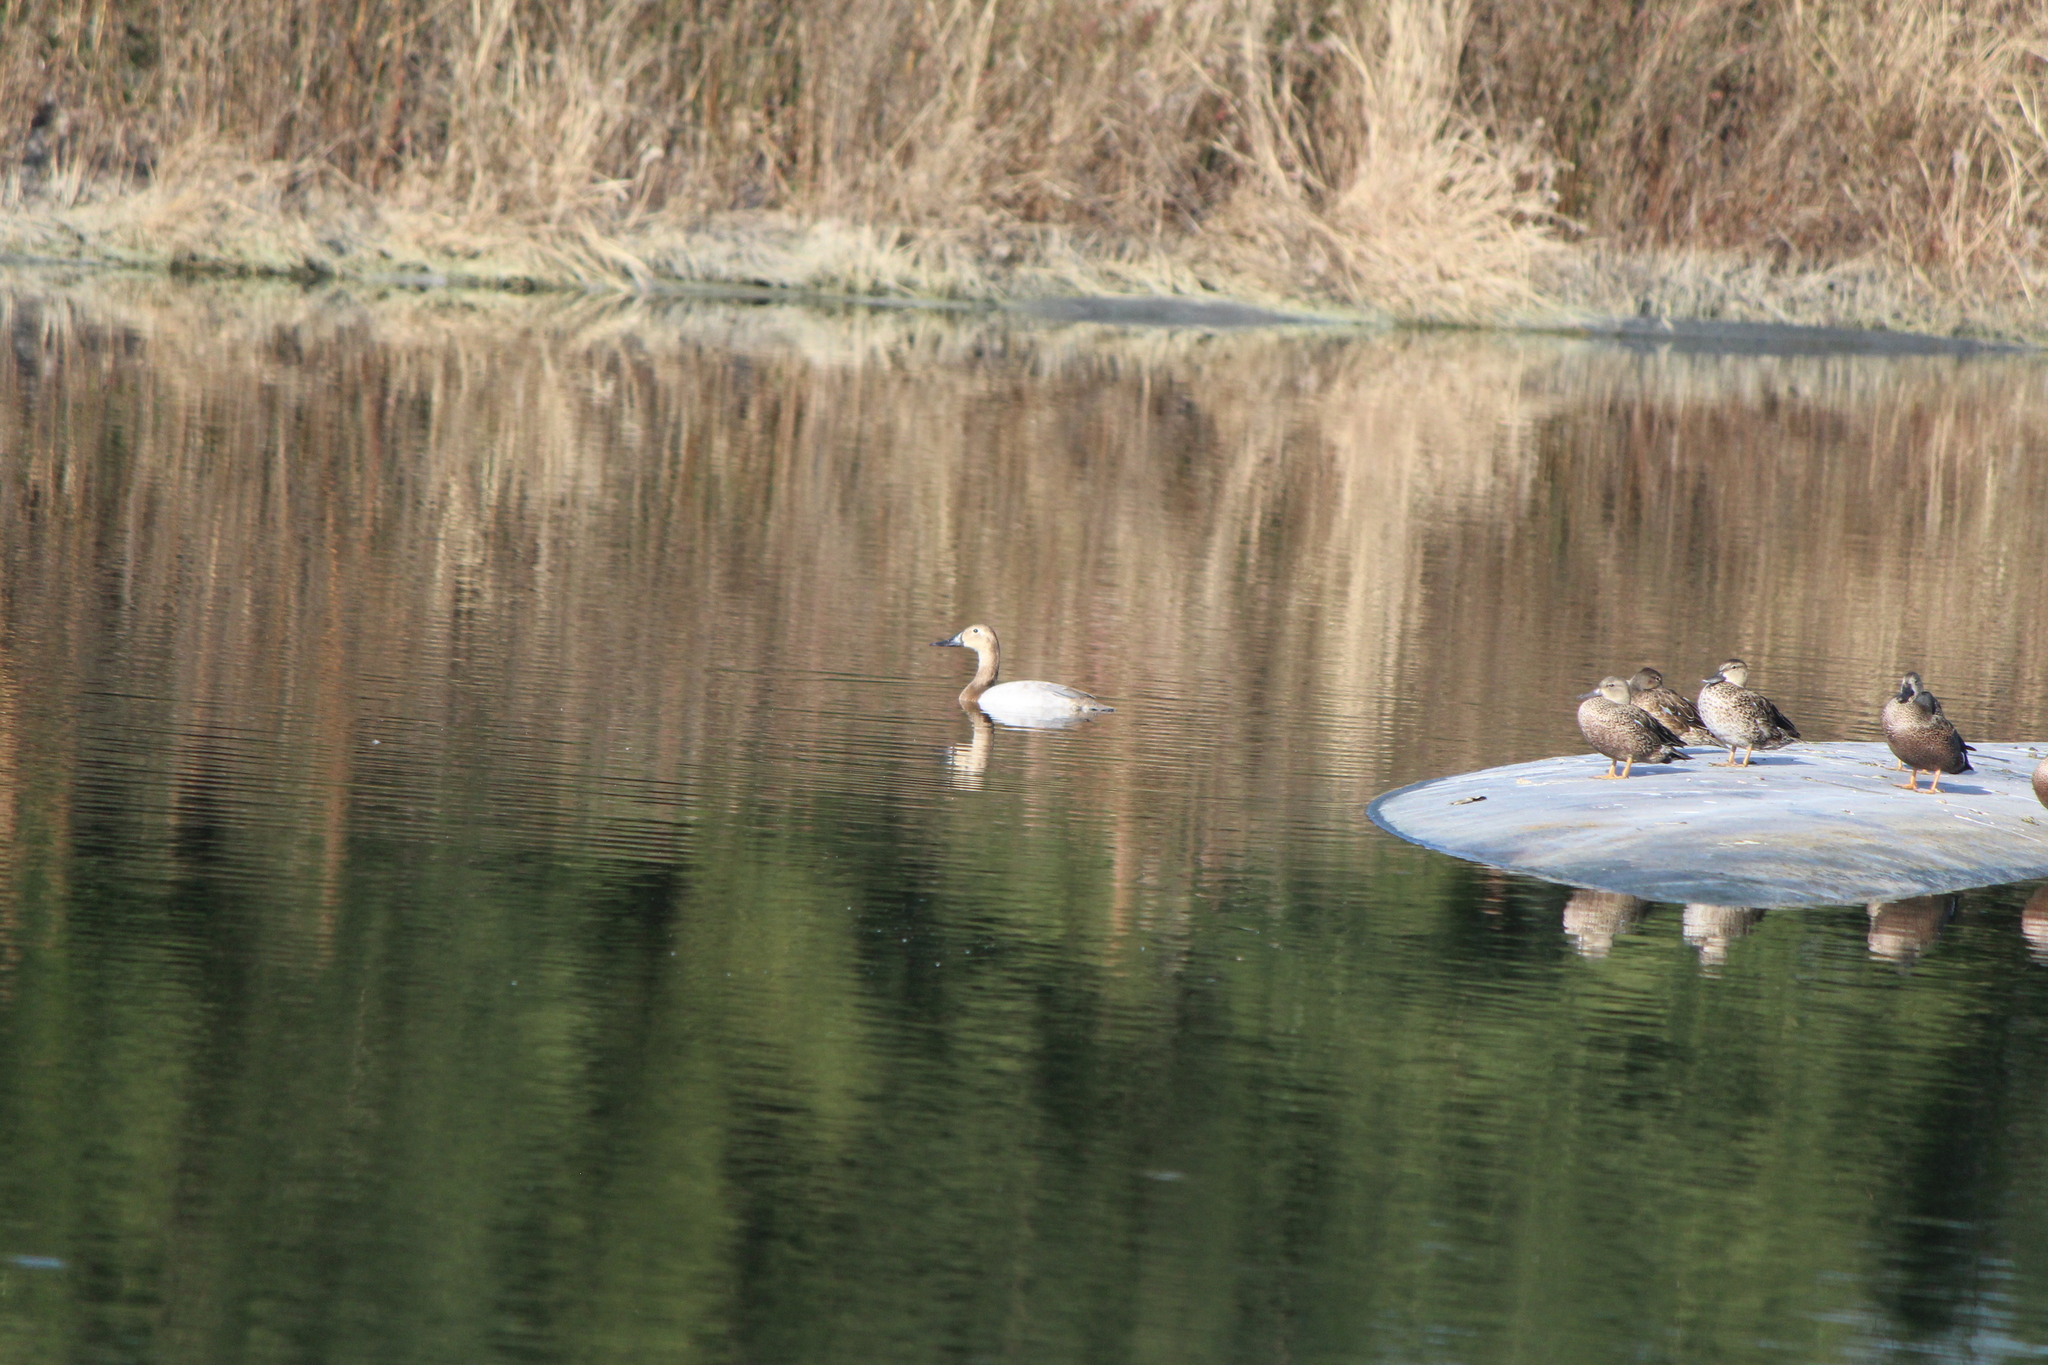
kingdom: Animalia
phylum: Chordata
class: Aves
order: Anseriformes
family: Anatidae
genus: Aythya
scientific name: Aythya valisineria
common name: Canvasback
